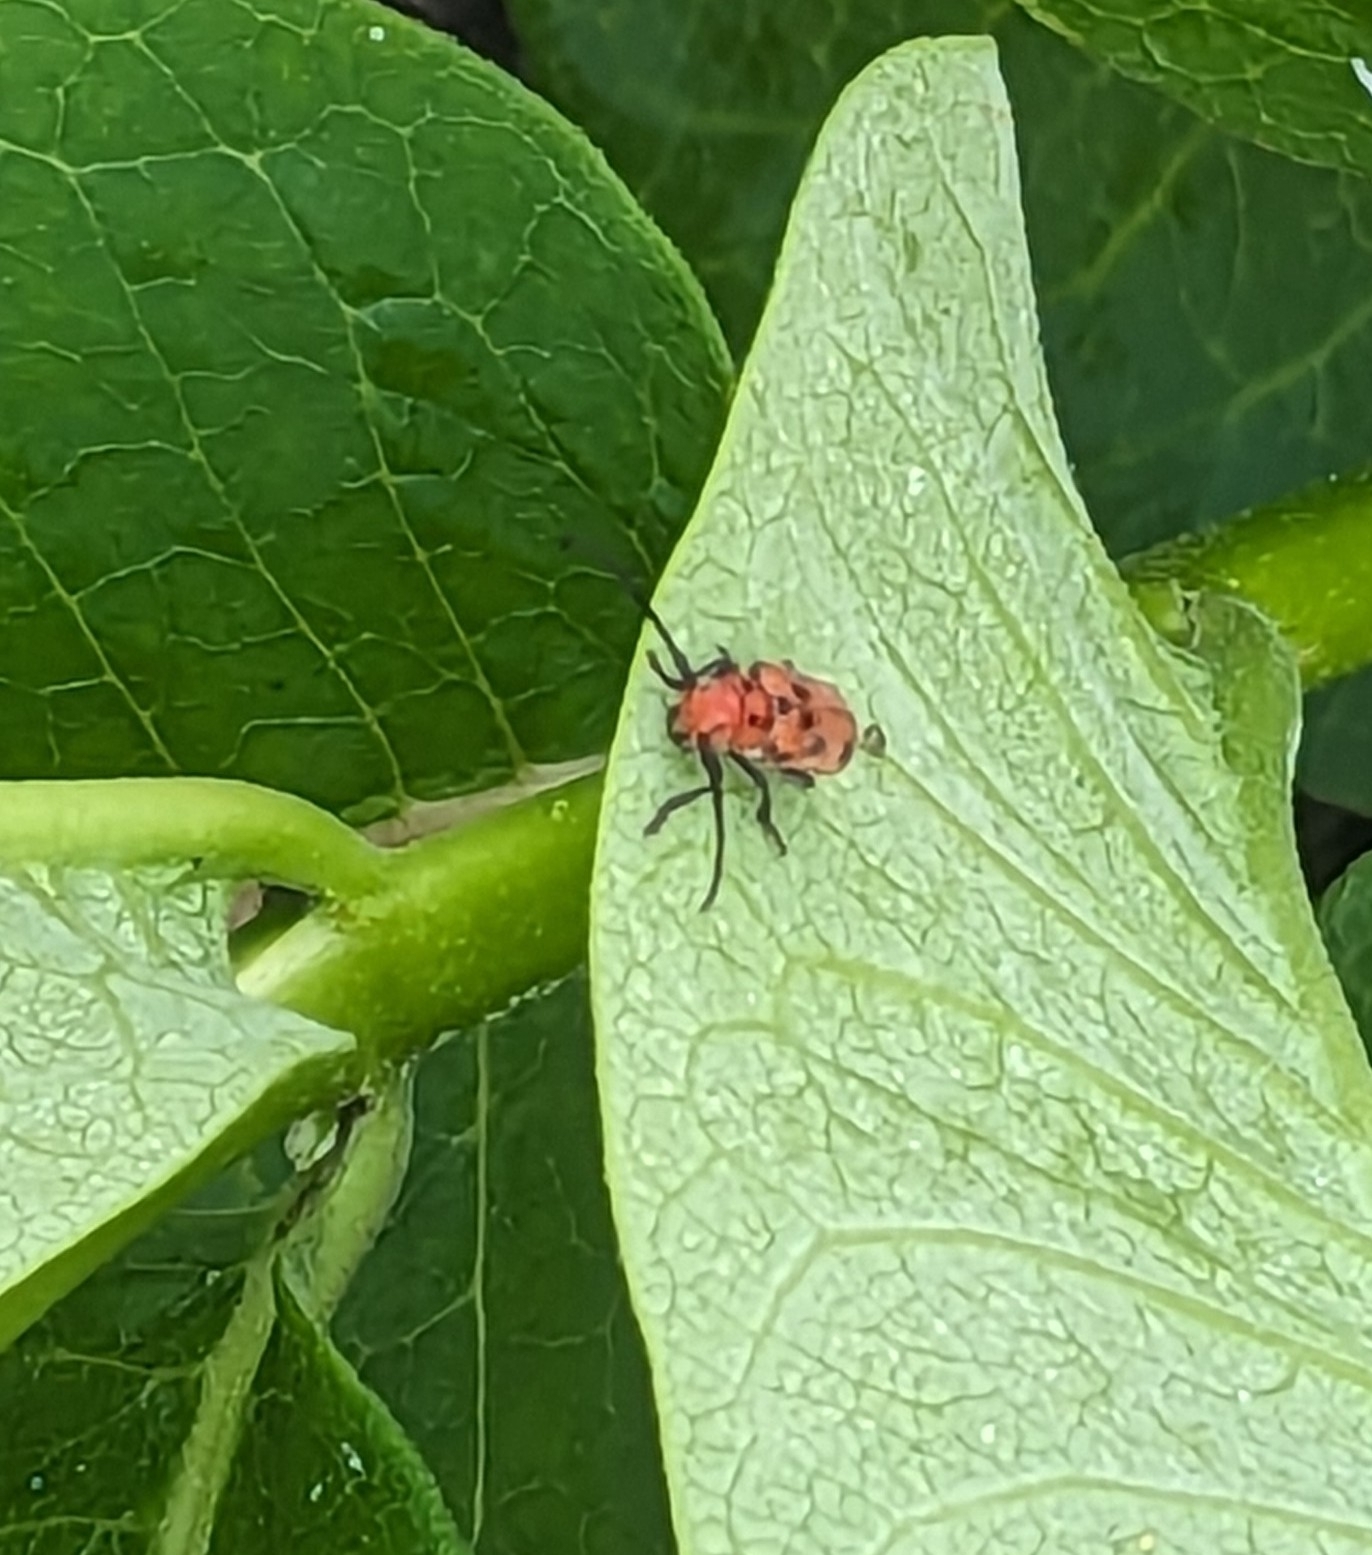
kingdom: Animalia
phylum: Arthropoda
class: Insecta
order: Coleoptera
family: Cerambycidae
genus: Tetraopes
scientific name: Tetraopes tetrophthalmus
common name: Red milkweed beetle
